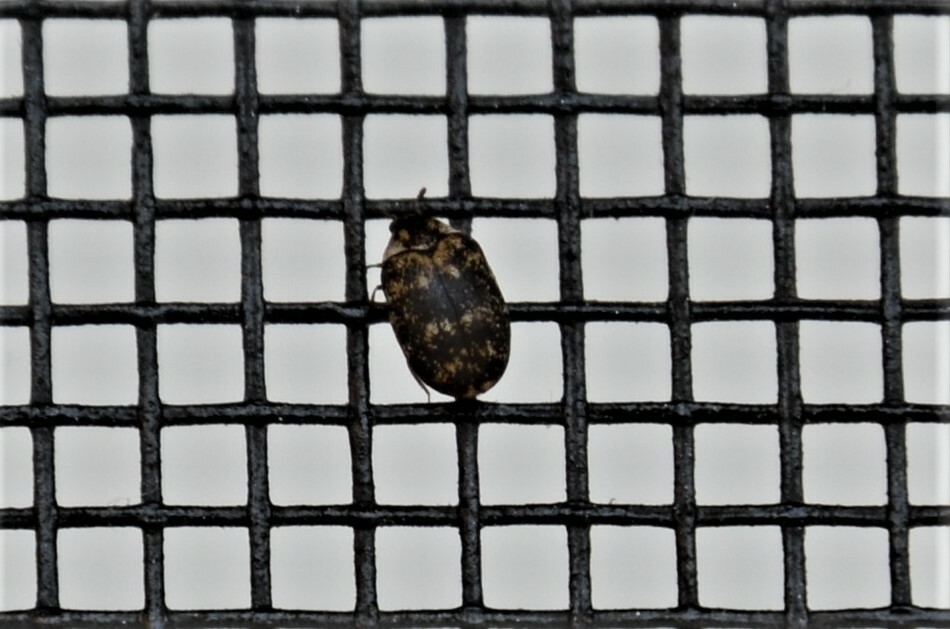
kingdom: Animalia
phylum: Arthropoda
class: Insecta
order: Coleoptera
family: Dermestidae
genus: Anthrenus
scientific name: Anthrenus museorum
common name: Museum beetle
